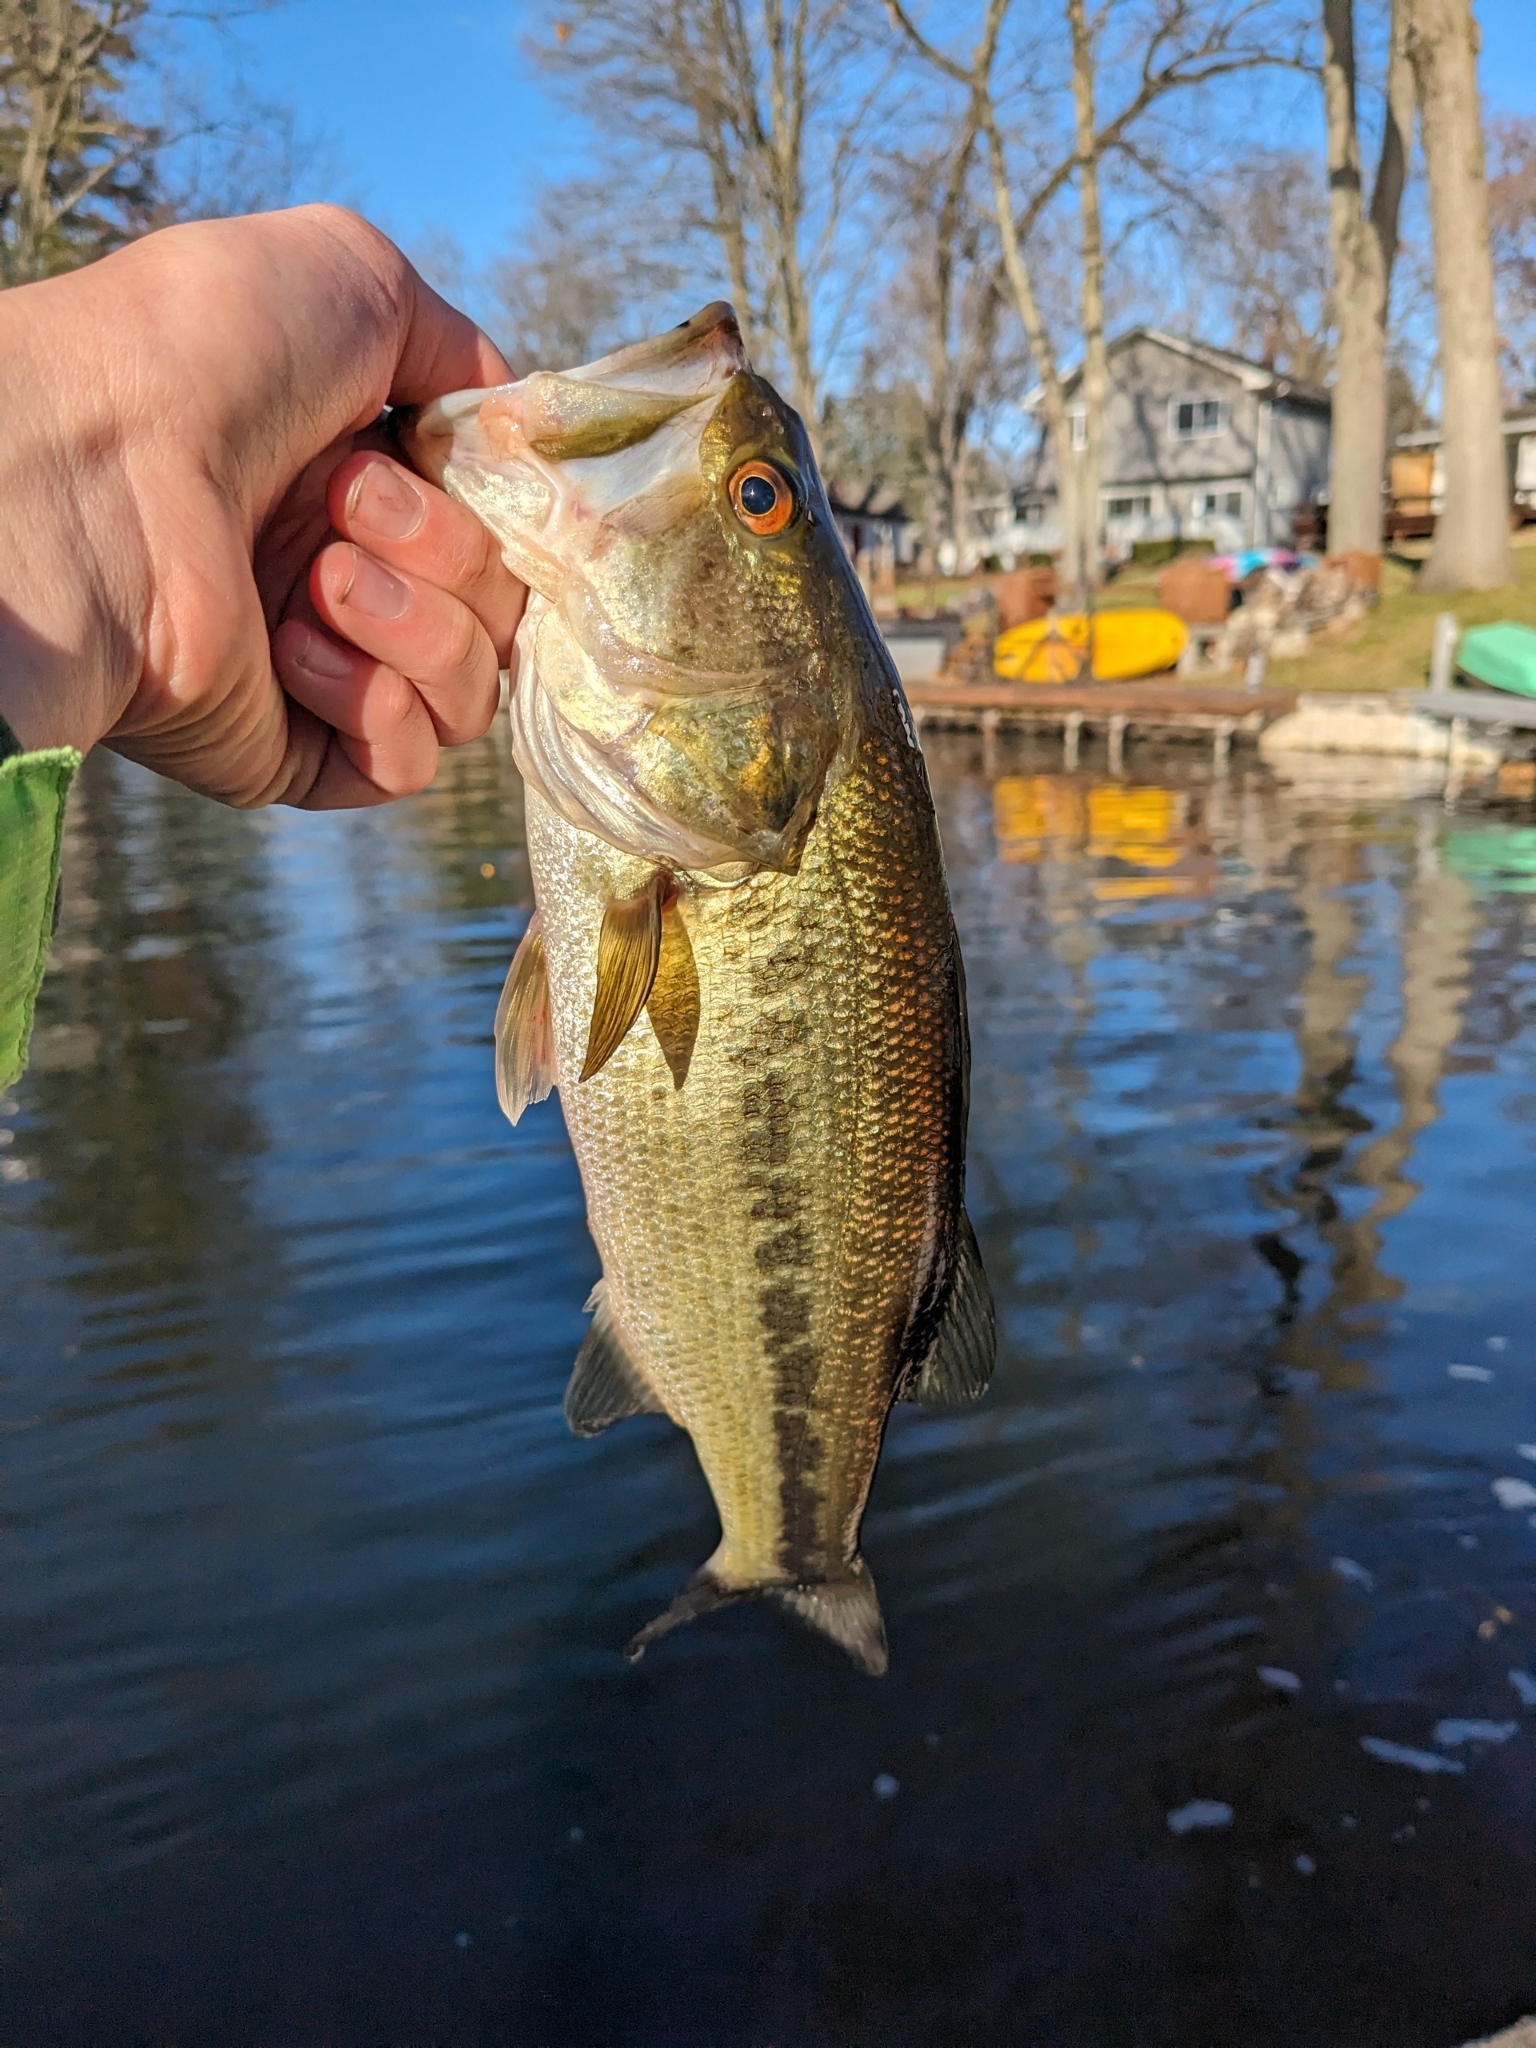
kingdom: Animalia
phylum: Chordata
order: Perciformes
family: Centrarchidae
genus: Micropterus
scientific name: Micropterus
